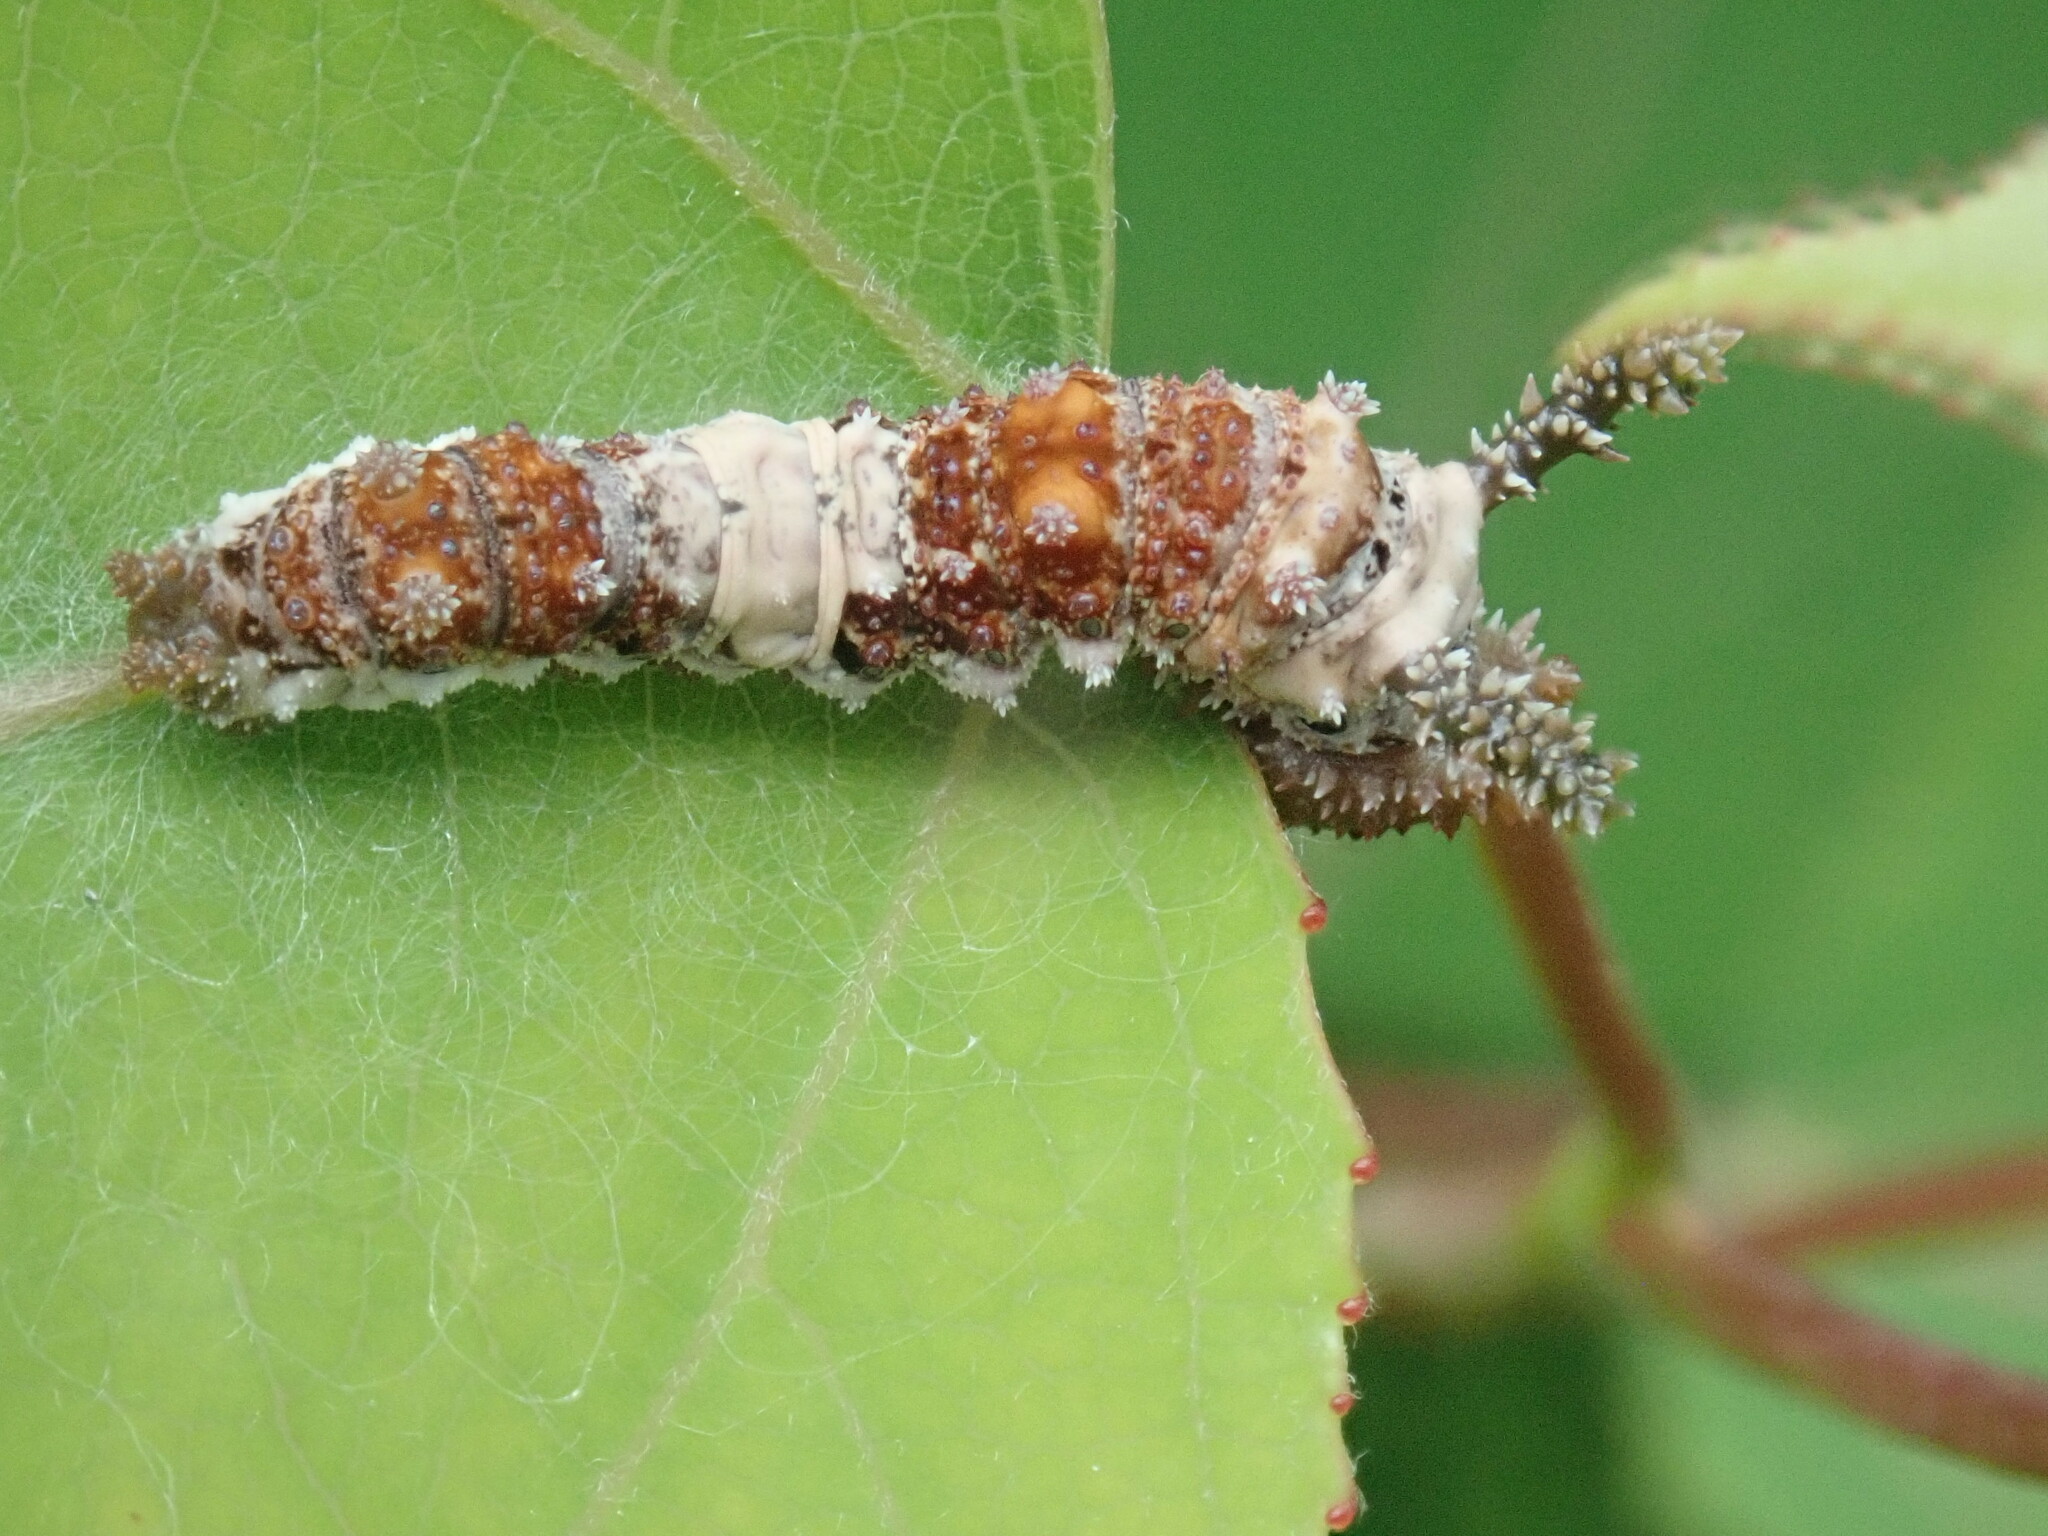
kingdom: Animalia
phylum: Arthropoda
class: Insecta
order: Lepidoptera
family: Nymphalidae
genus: Limenitis
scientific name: Limenitis archippus
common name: Viceroy
